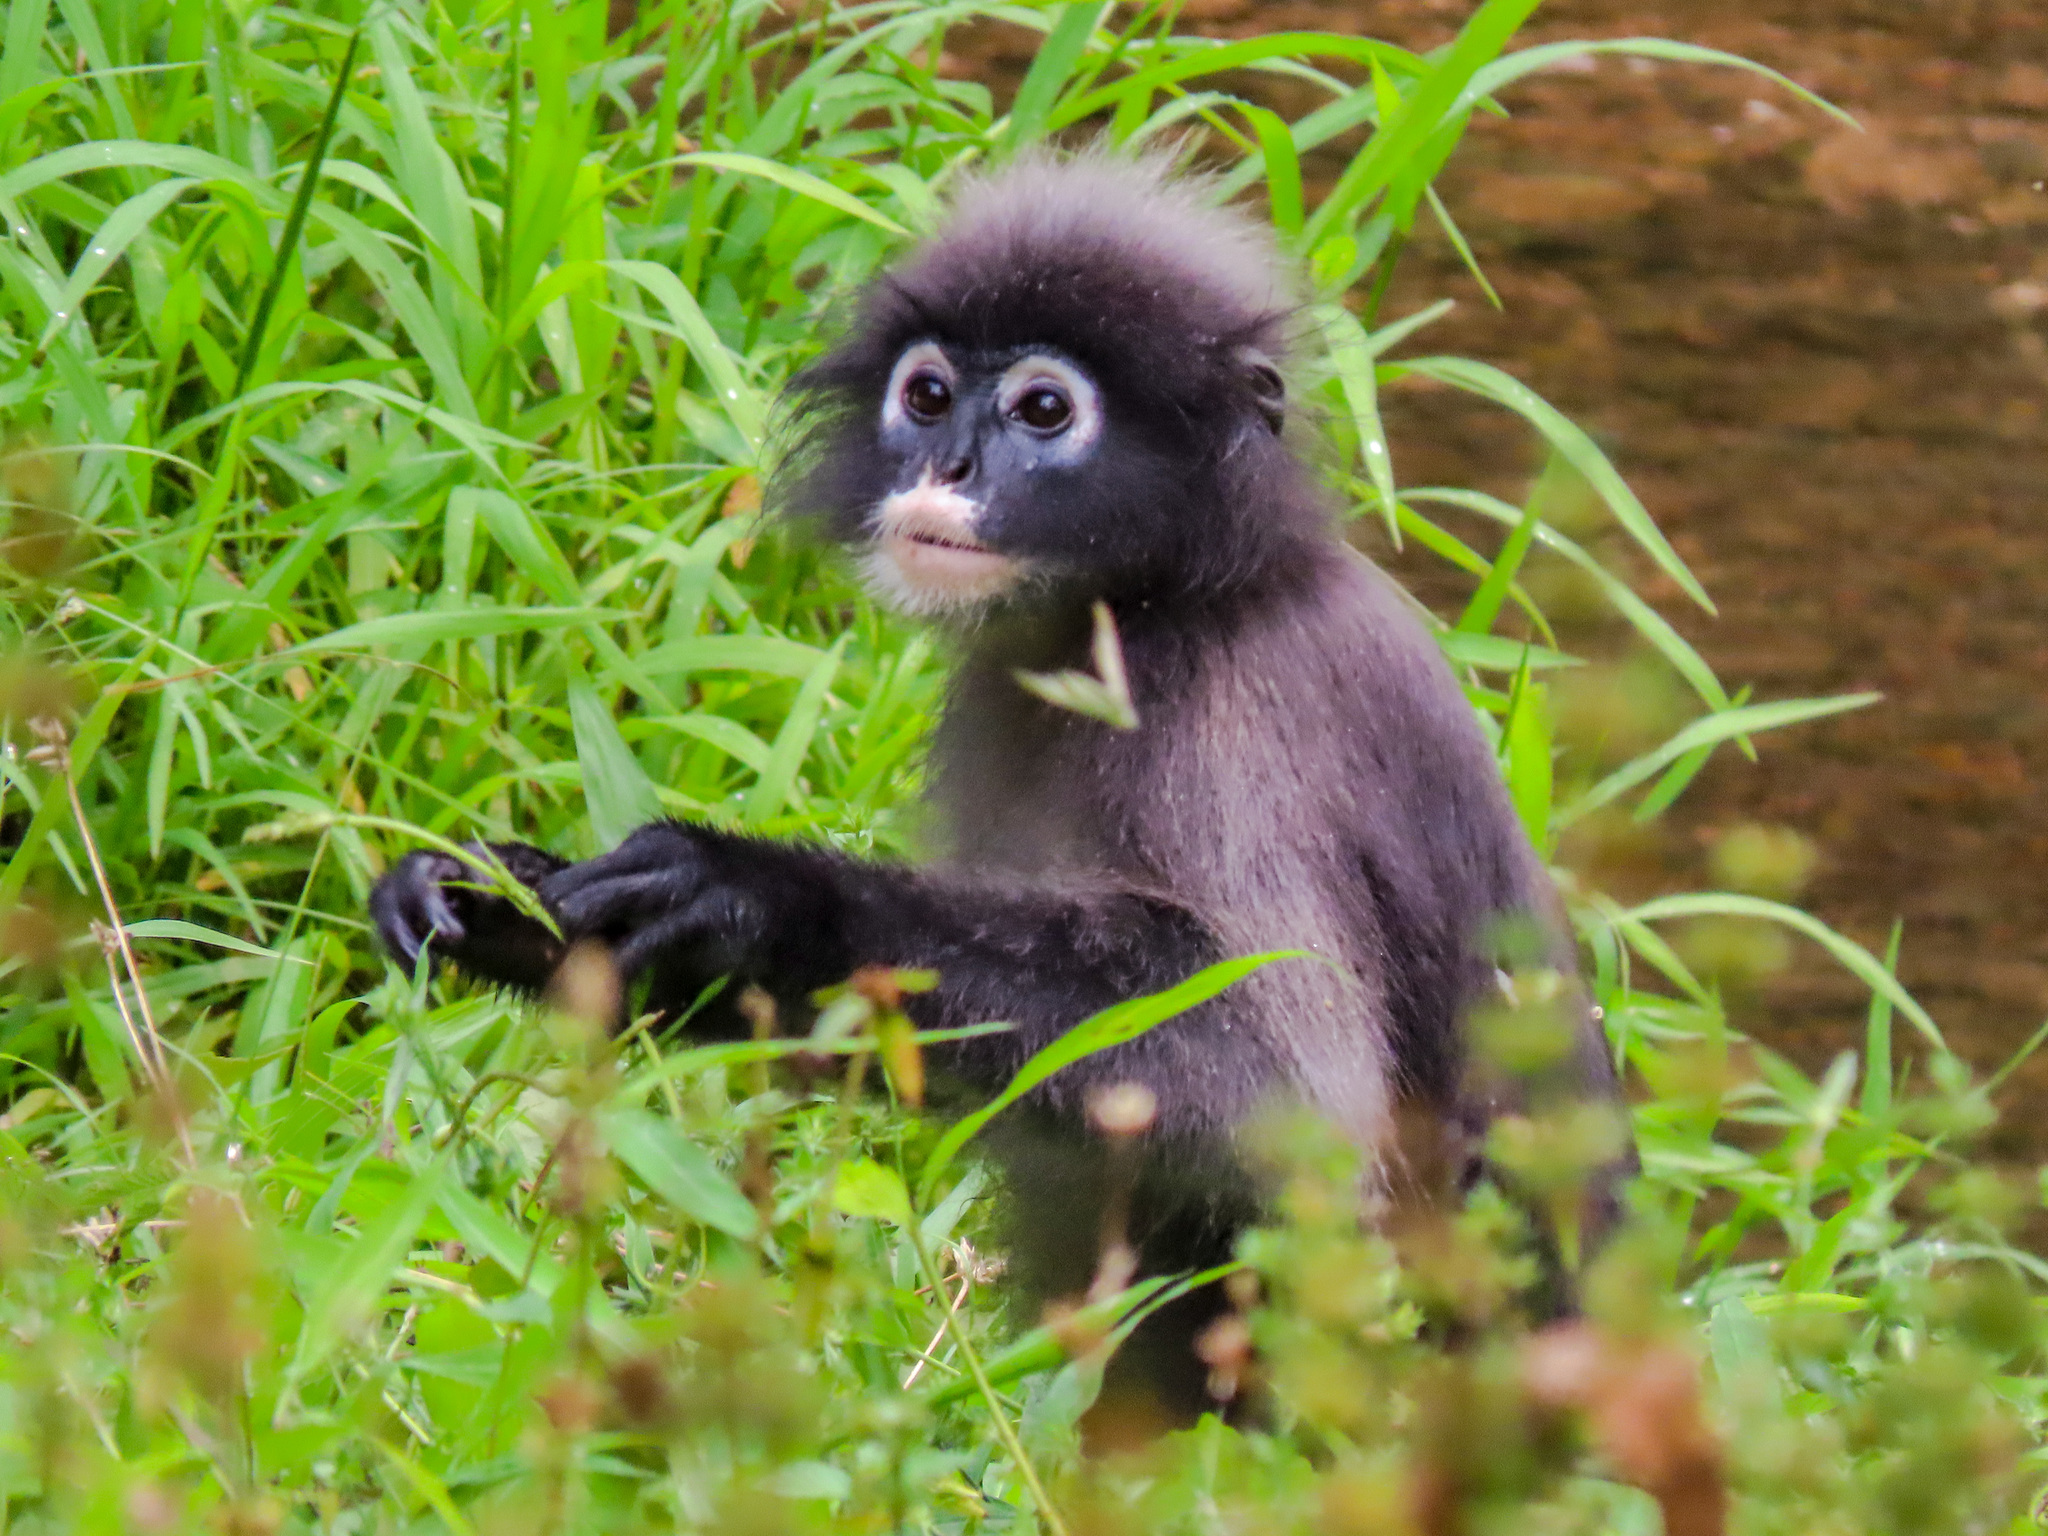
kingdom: Animalia
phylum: Chordata
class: Mammalia
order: Primates
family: Cercopithecidae
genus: Trachypithecus
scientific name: Trachypithecus obscurus
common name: Dusky leaf-monkey
